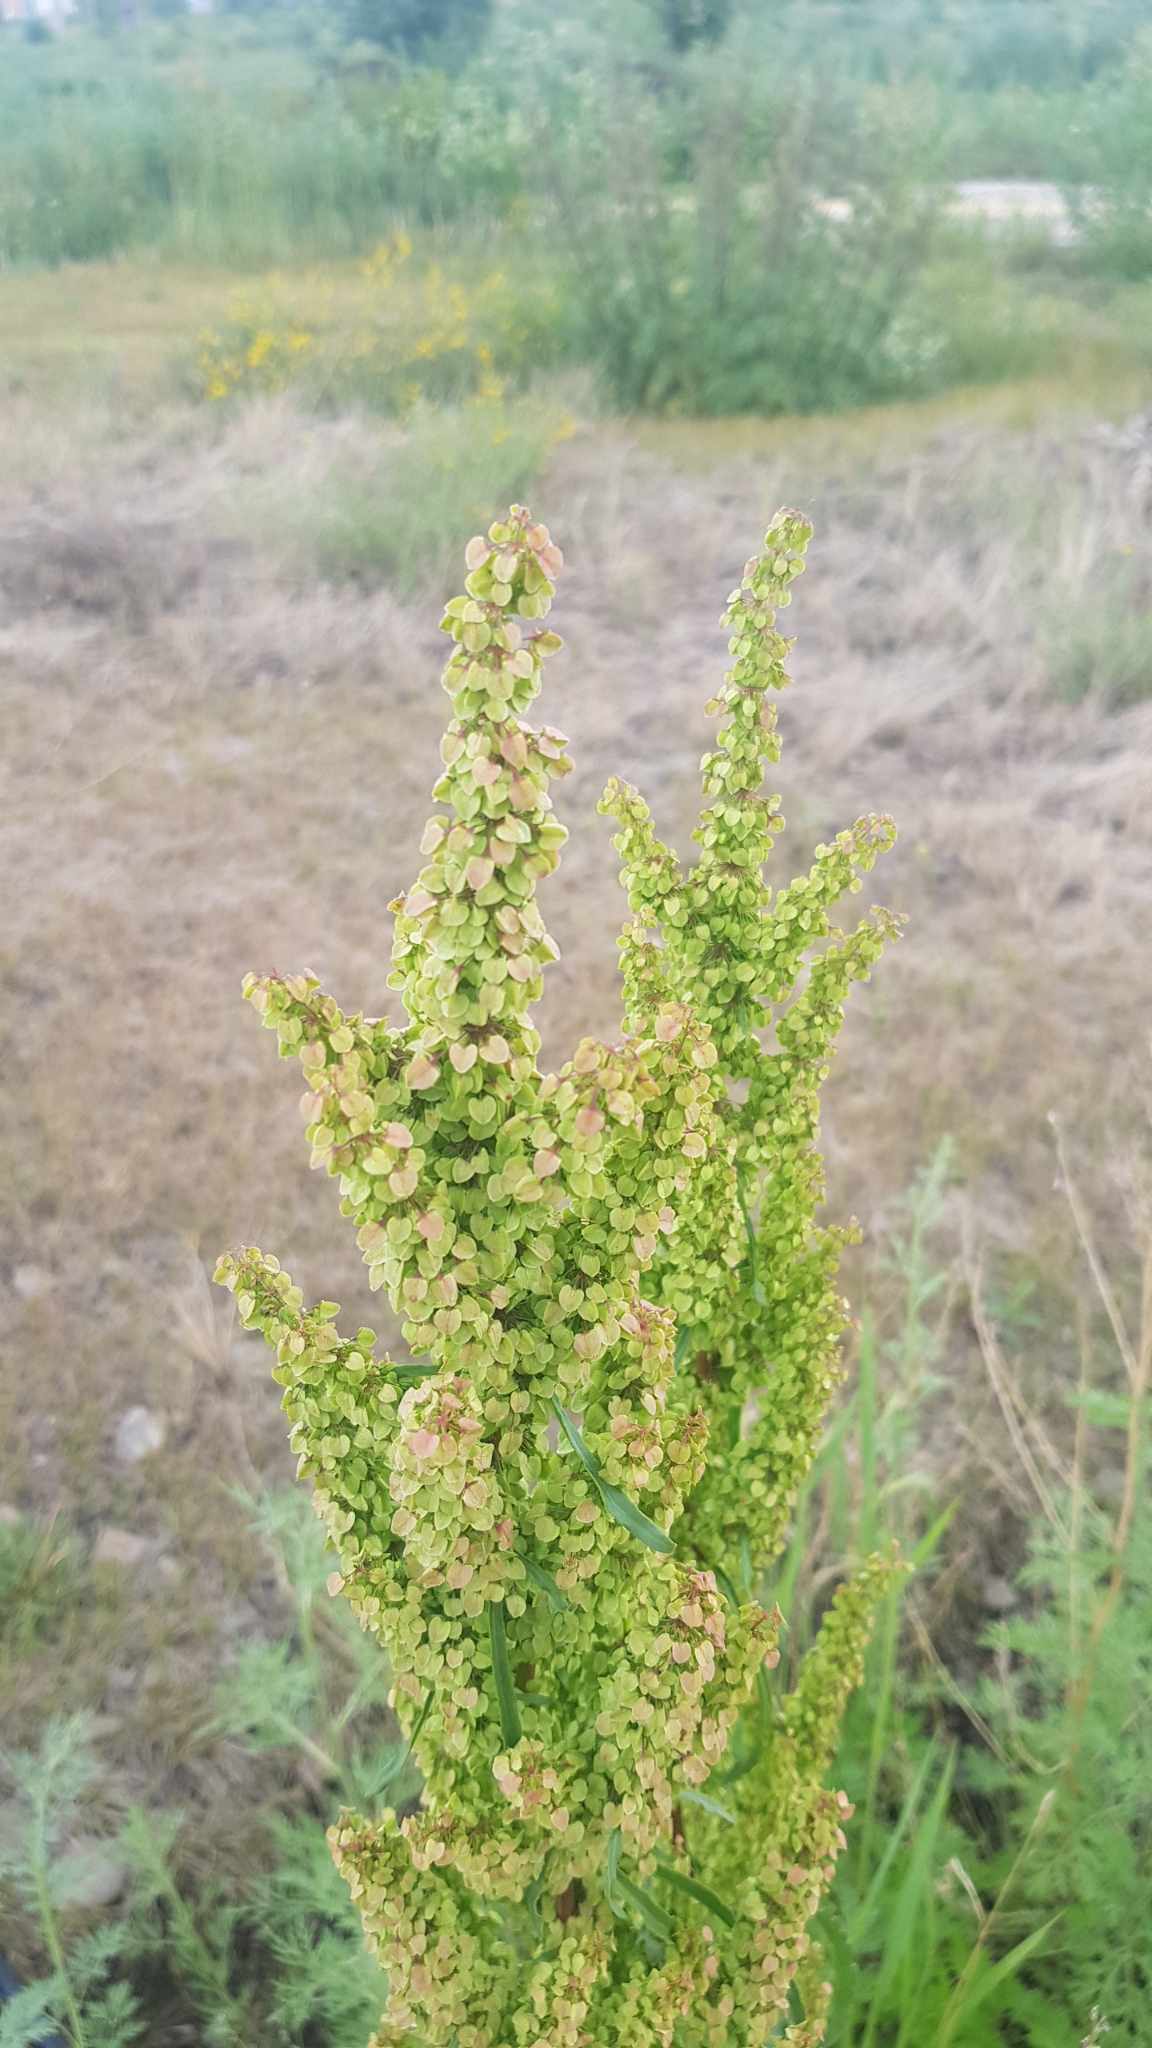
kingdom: Plantae
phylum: Tracheophyta
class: Magnoliopsida
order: Caryophyllales
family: Polygonaceae
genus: Rumex
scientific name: Rumex pseudonatronatus
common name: Field dock
